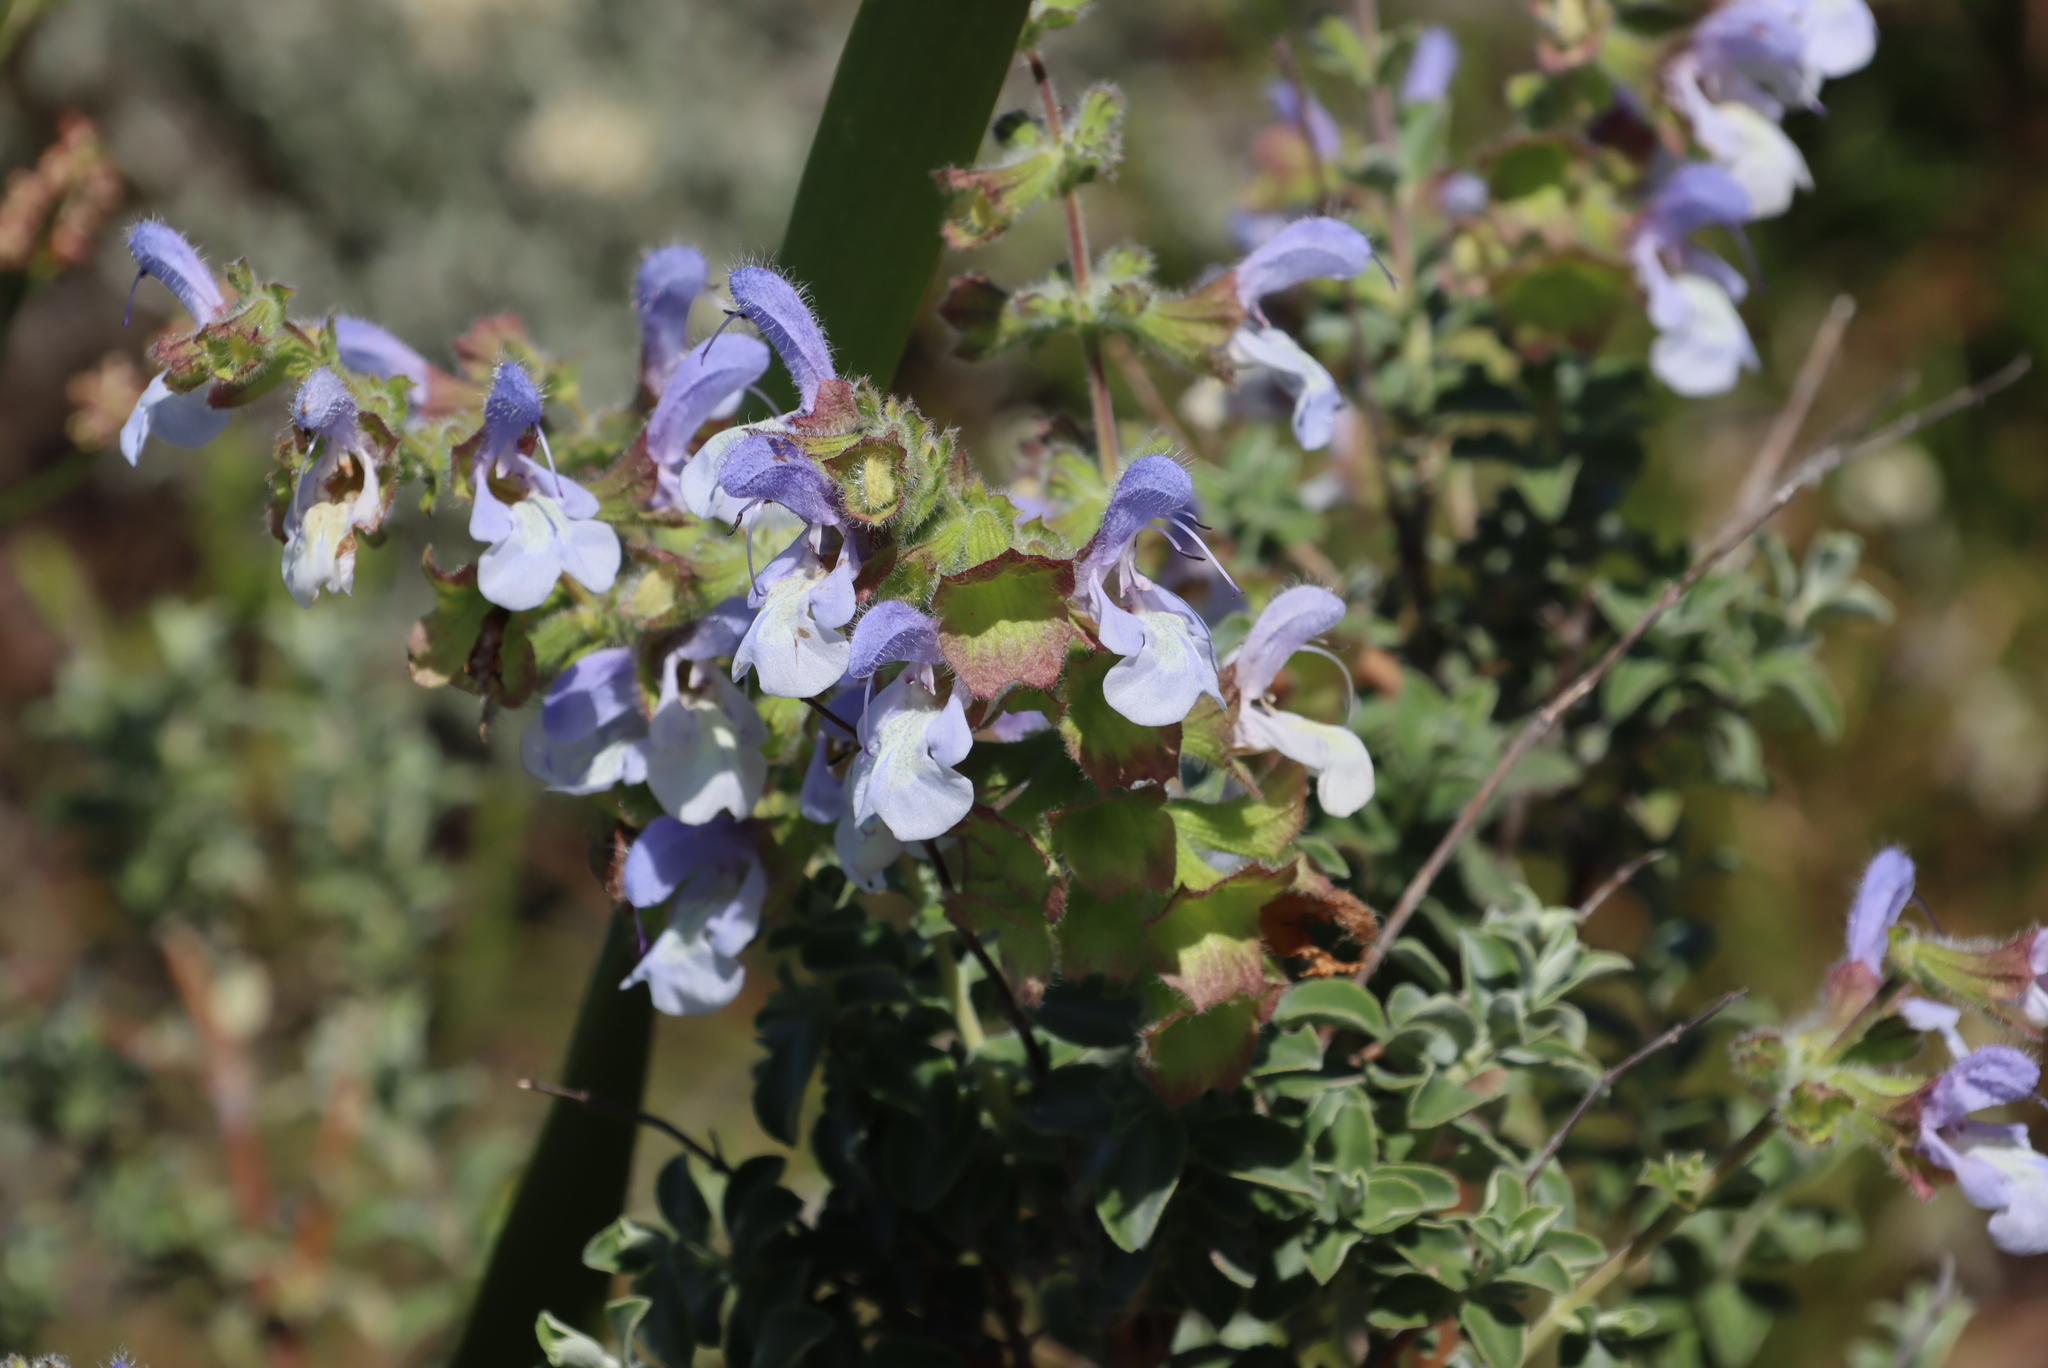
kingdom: Plantae
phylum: Tracheophyta
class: Magnoliopsida
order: Lamiales
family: Lamiaceae
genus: Salvia
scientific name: Salvia africana
